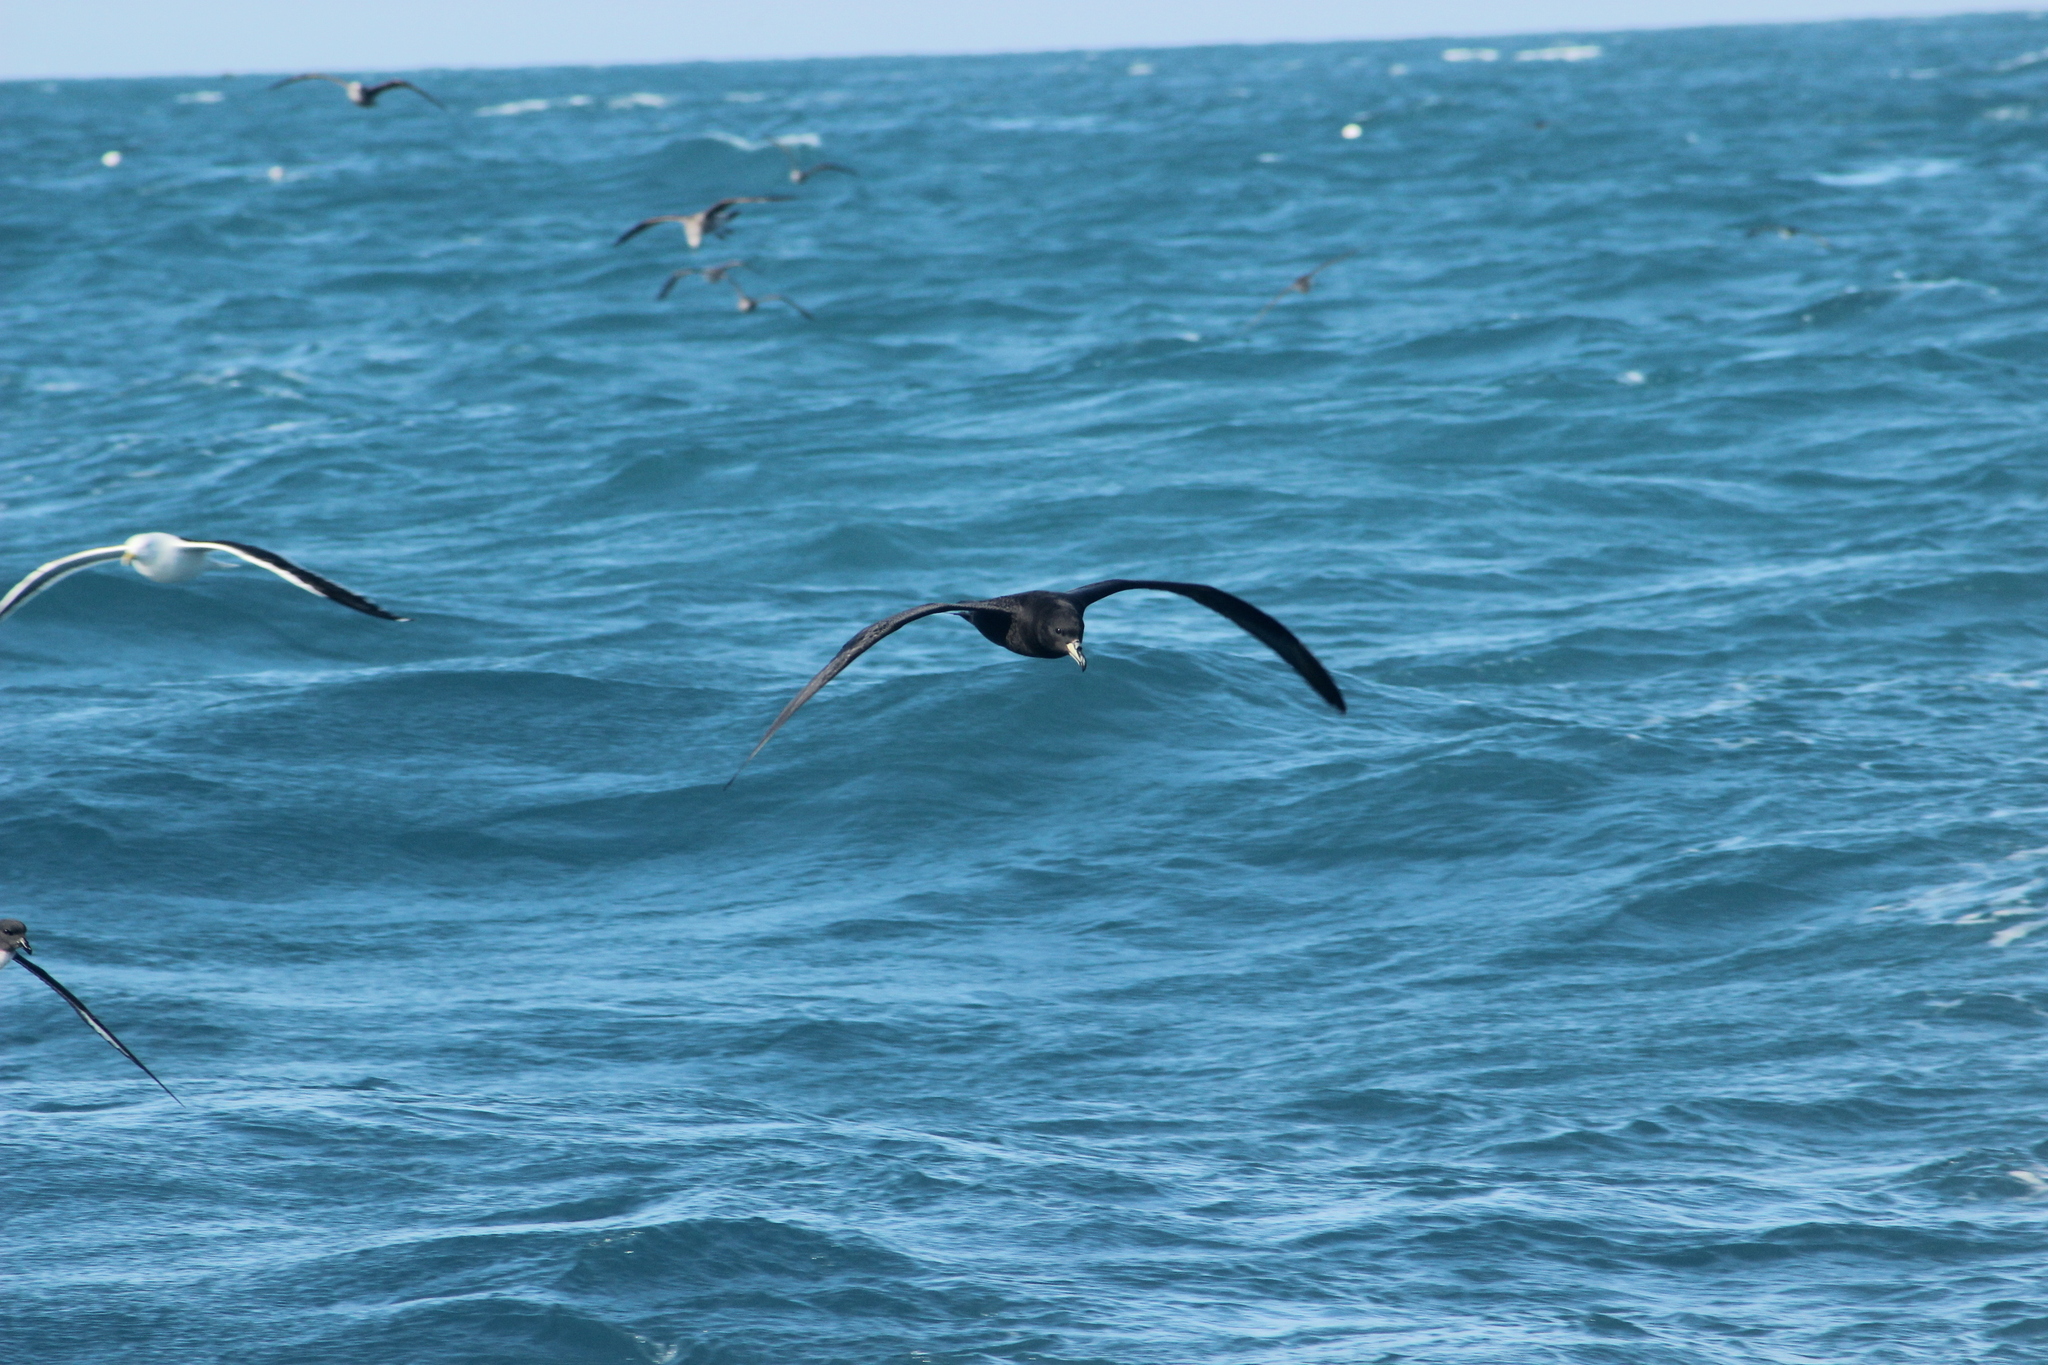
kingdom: Animalia
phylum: Chordata
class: Aves
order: Procellariiformes
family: Procellariidae
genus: Procellaria
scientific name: Procellaria westlandica
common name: Westland petrel
